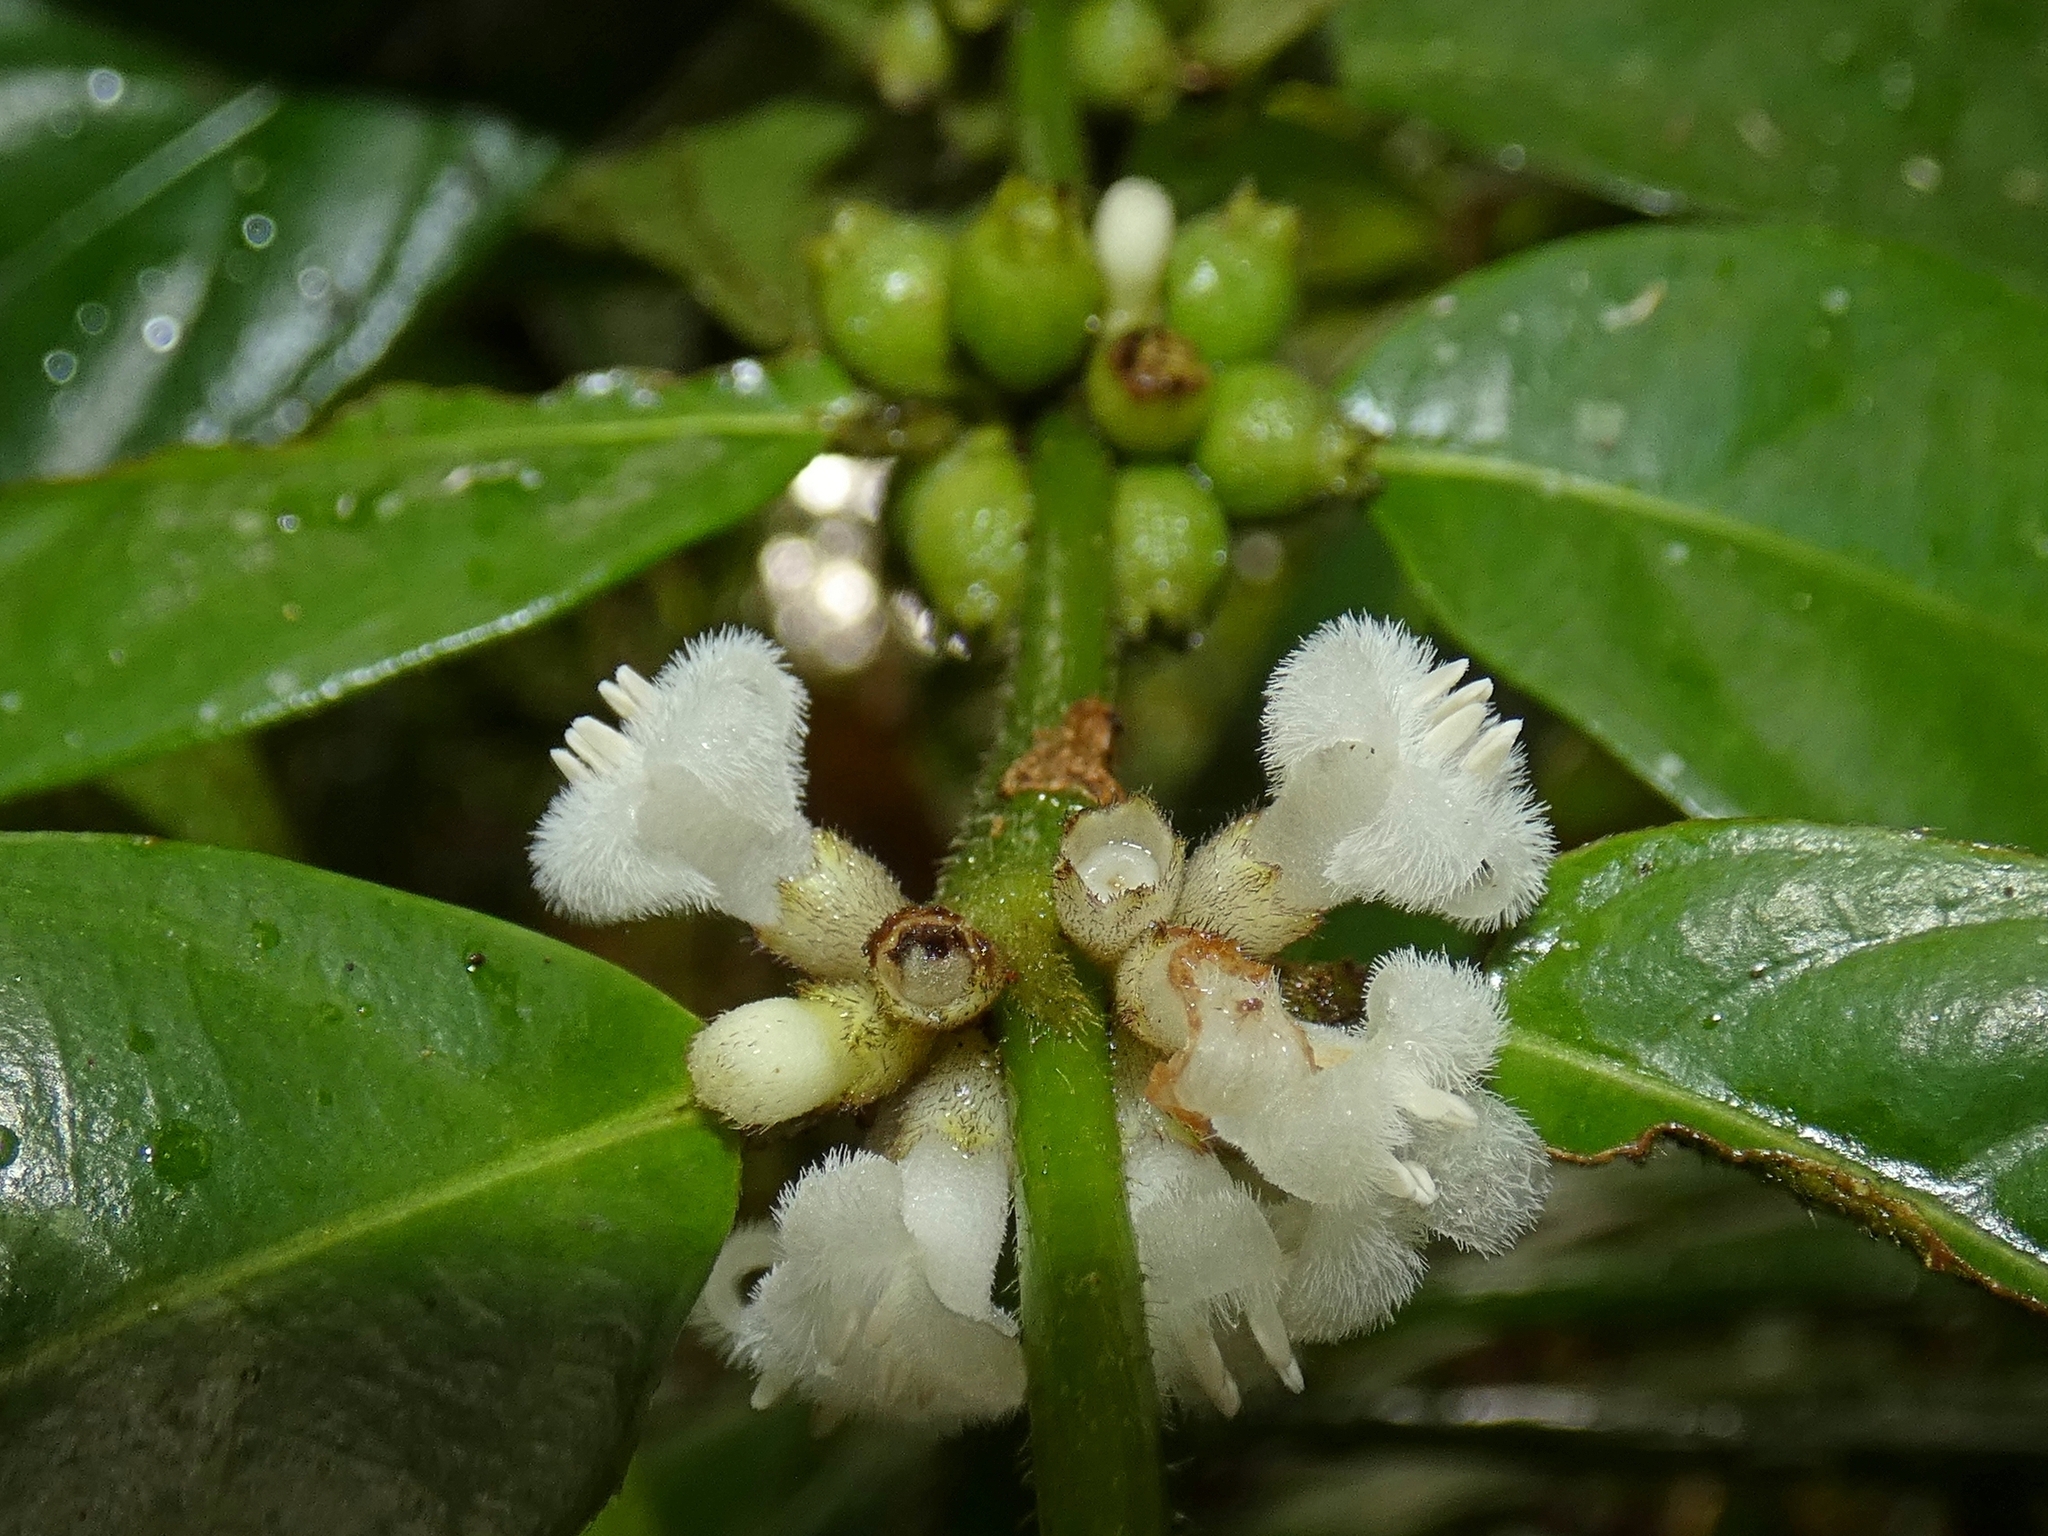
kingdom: Plantae
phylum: Tracheophyta
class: Magnoliopsida
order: Gentianales
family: Rubiaceae
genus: Lasianthus
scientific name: Lasianthus chlorocarpus
